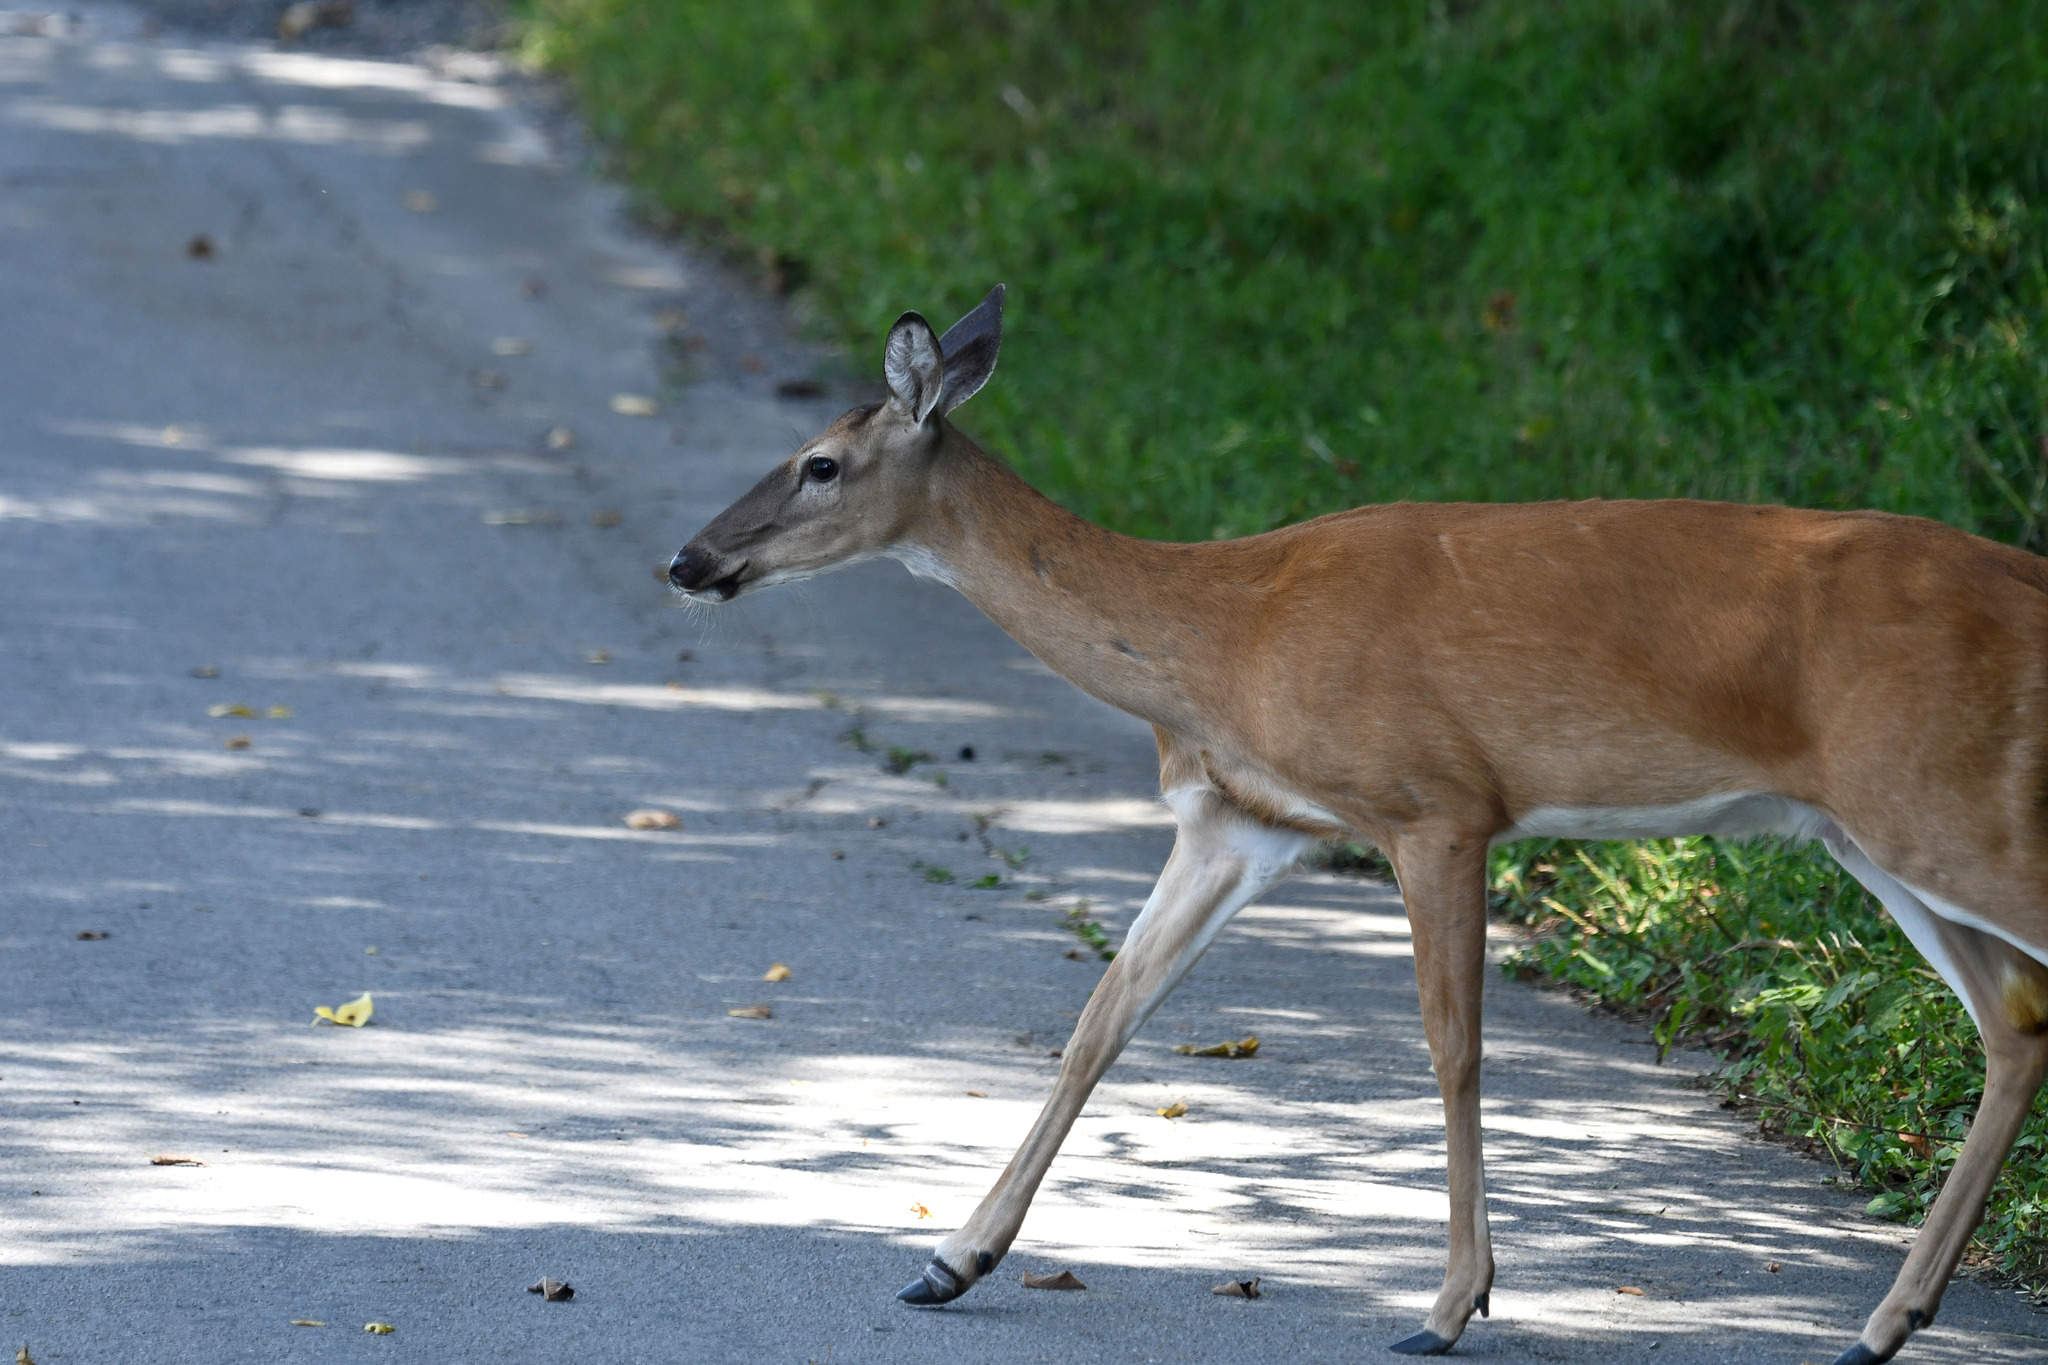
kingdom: Animalia
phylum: Chordata
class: Mammalia
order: Artiodactyla
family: Cervidae
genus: Odocoileus
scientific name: Odocoileus virginianus
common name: White-tailed deer
